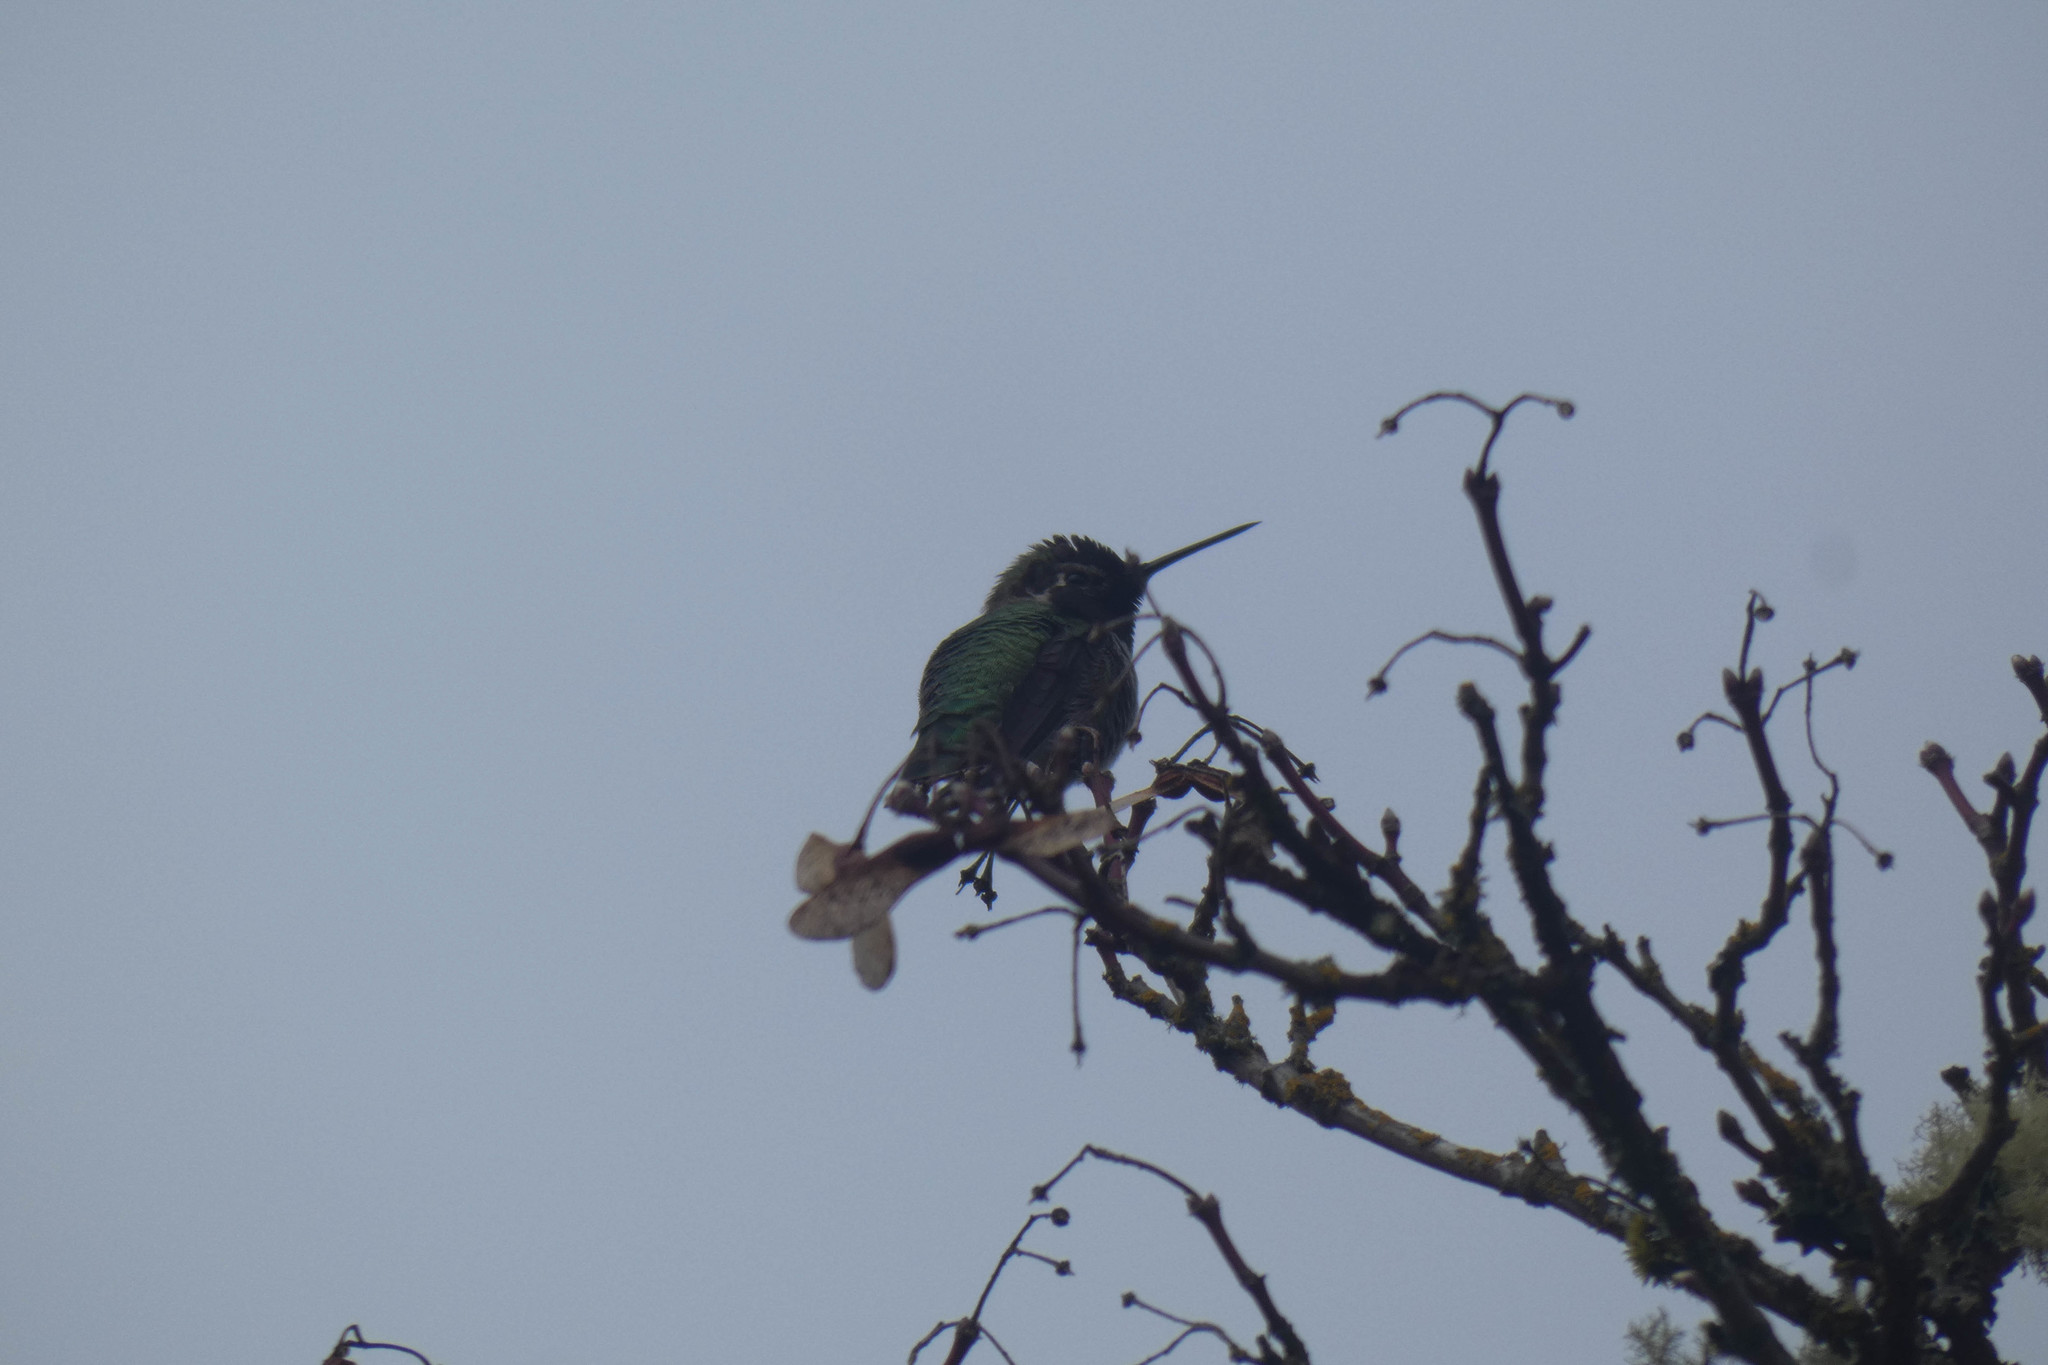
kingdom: Animalia
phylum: Chordata
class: Aves
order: Apodiformes
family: Trochilidae
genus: Calypte
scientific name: Calypte anna
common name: Anna's hummingbird
